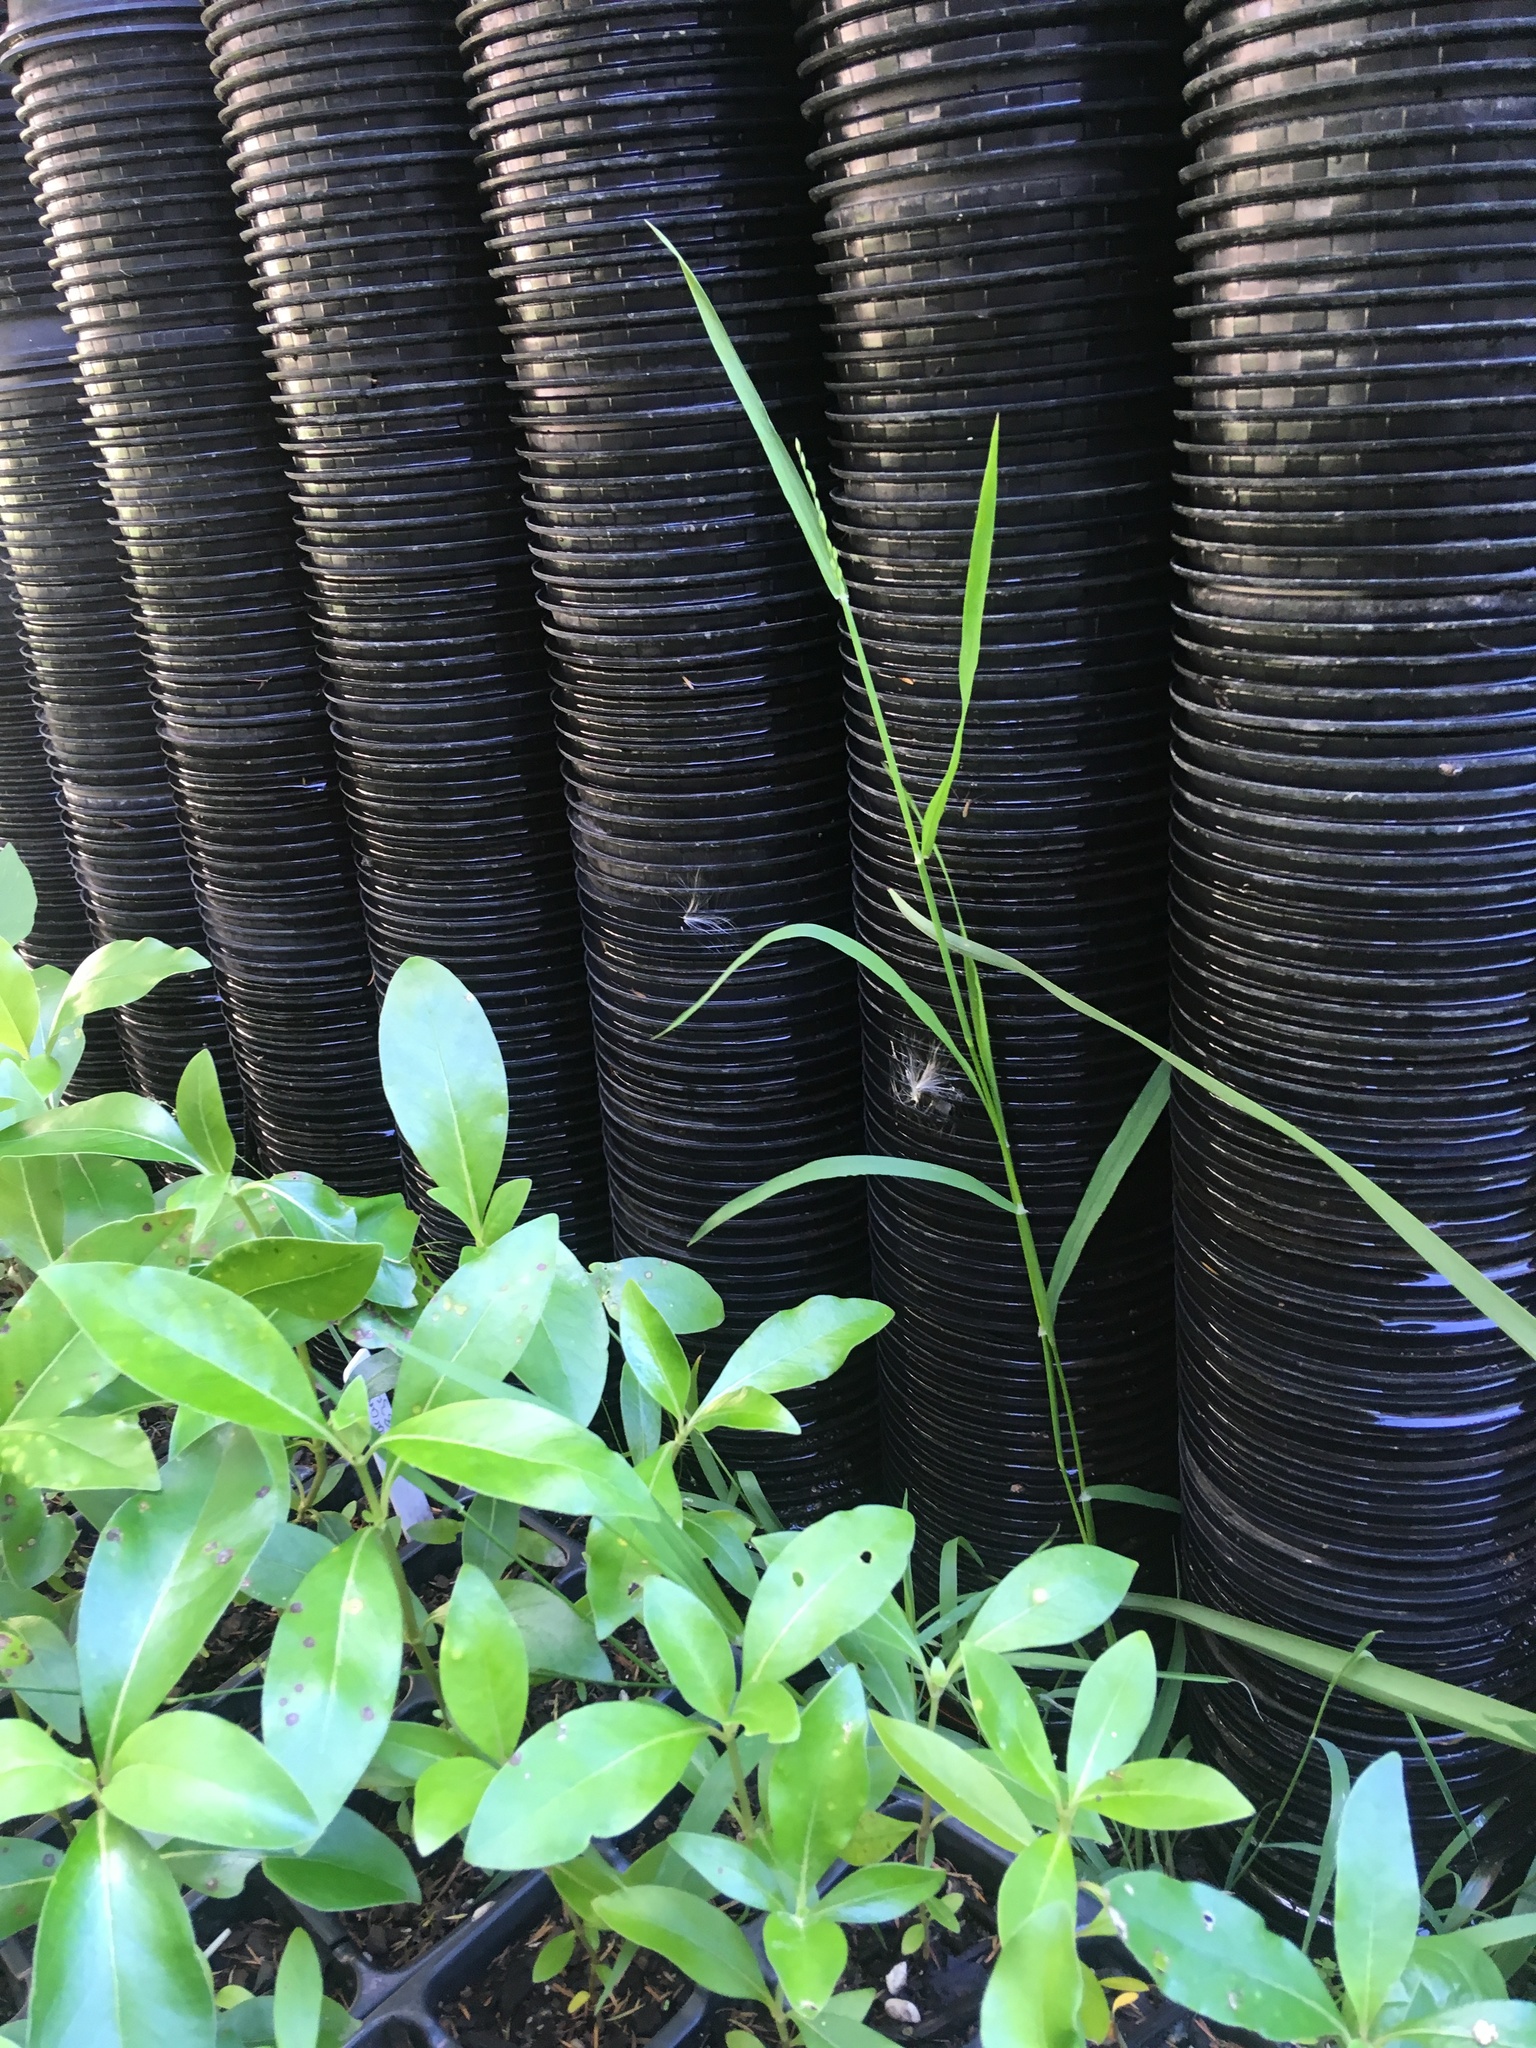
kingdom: Plantae
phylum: Tracheophyta
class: Liliopsida
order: Poales
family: Poaceae
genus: Ehrharta
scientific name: Ehrharta erecta
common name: Panic veldtgrass
